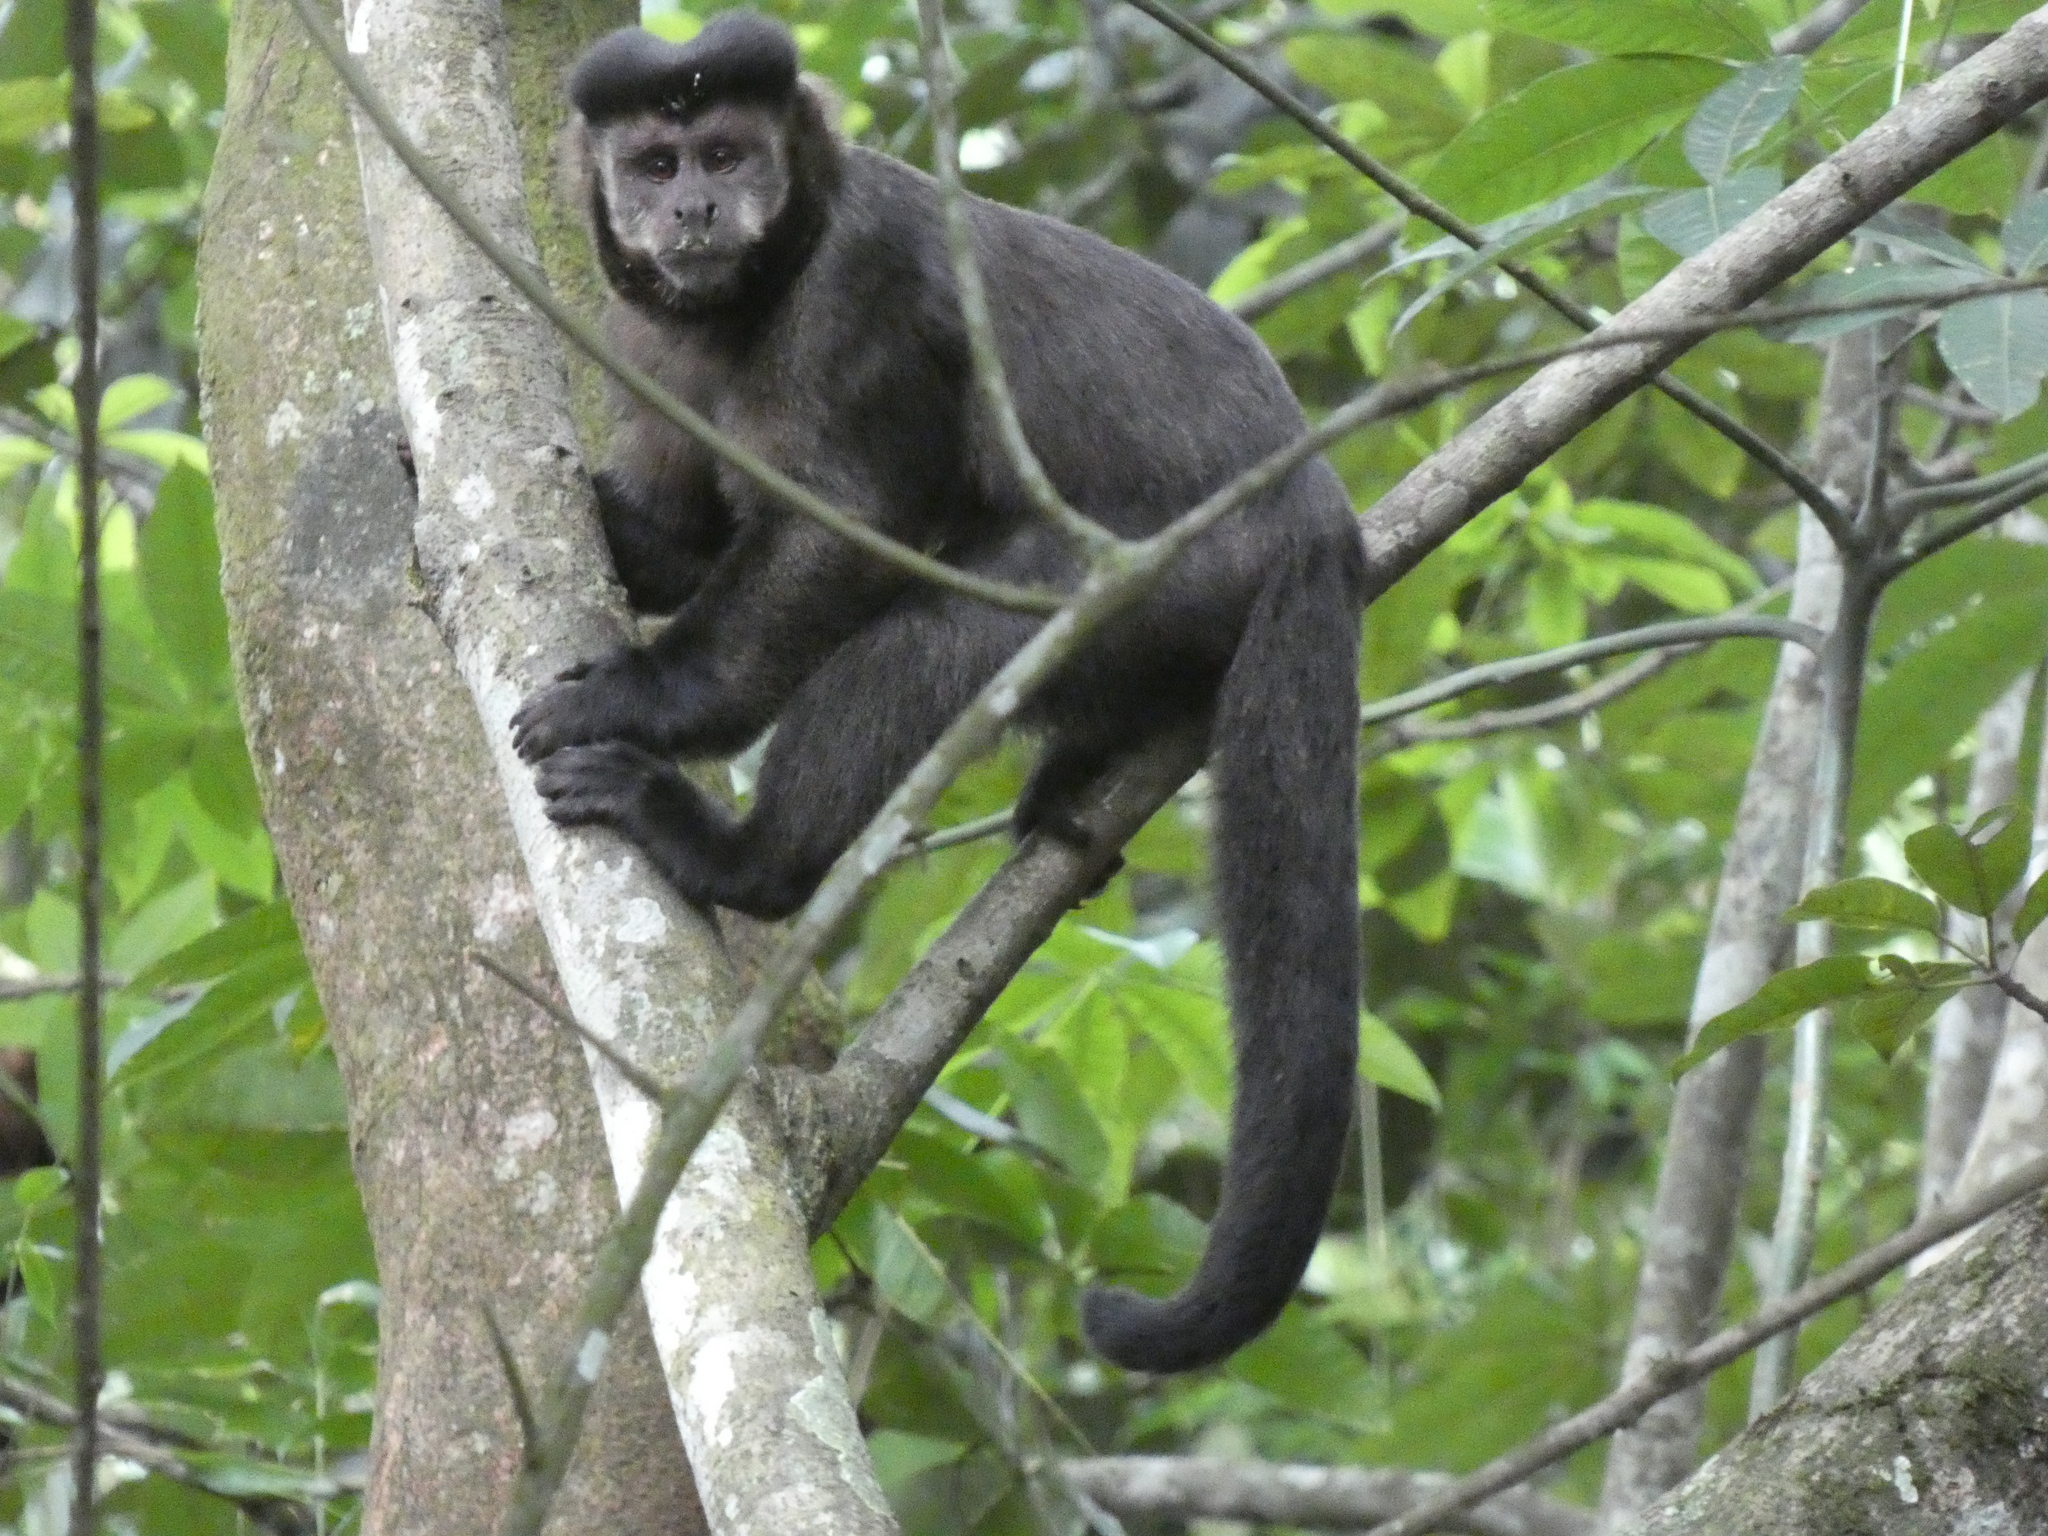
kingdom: Animalia
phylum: Chordata
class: Mammalia
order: Primates
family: Cebidae
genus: Sapajus
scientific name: Sapajus nigritus
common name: Black capuchin
